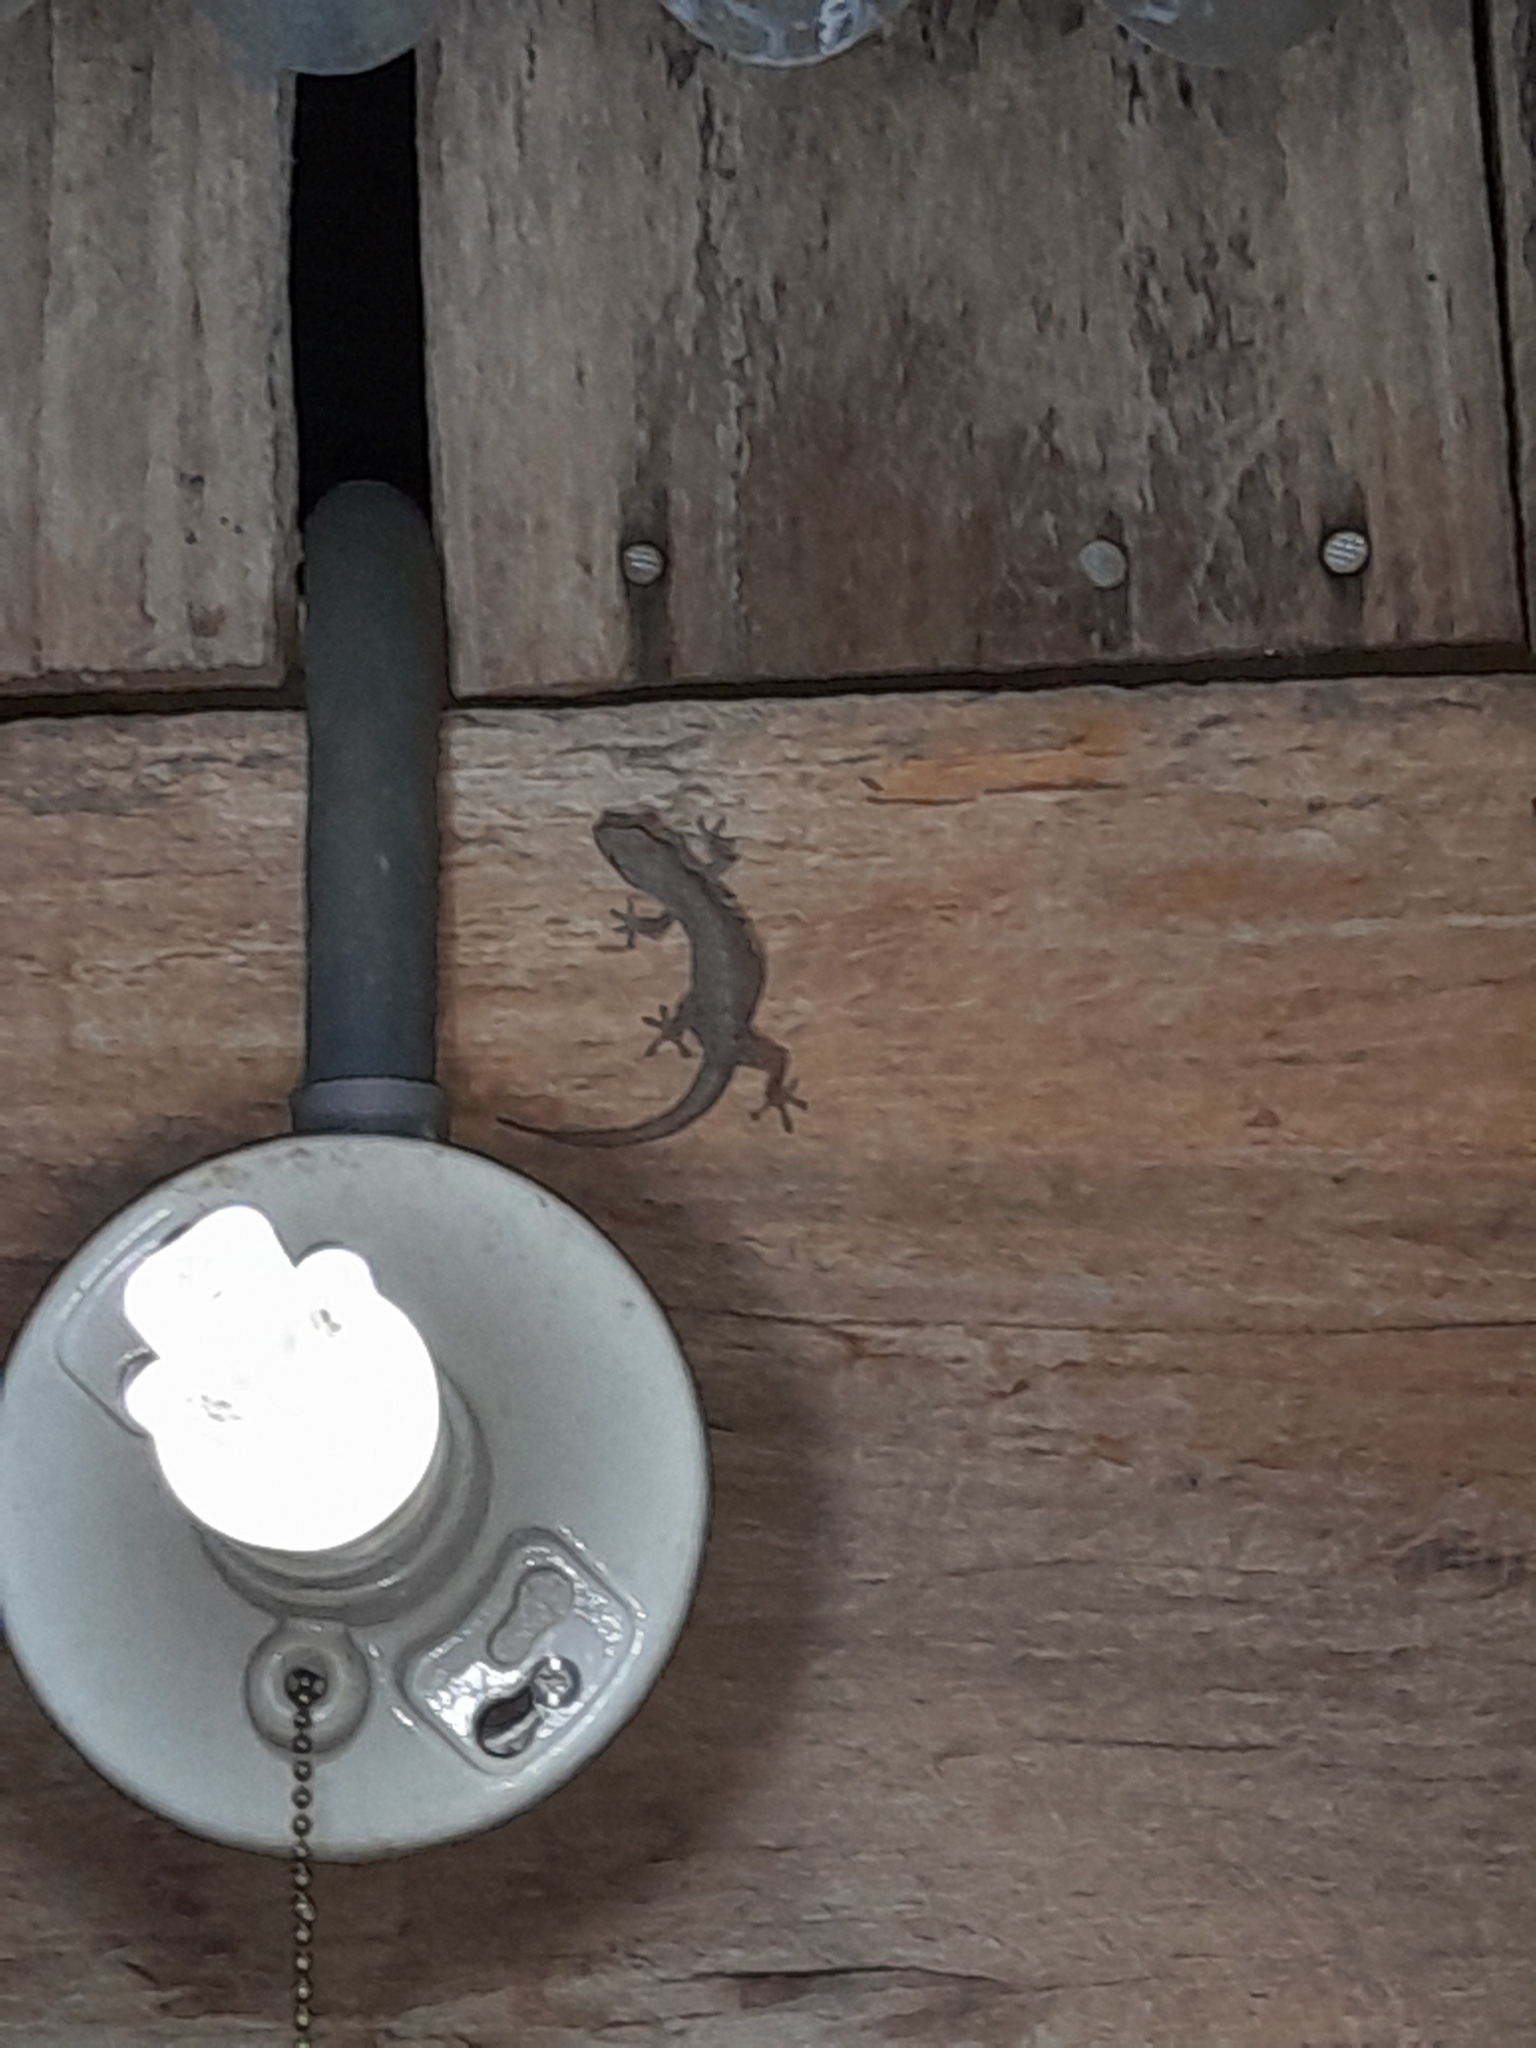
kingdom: Animalia
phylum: Chordata
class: Squamata
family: Gekkonidae
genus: Hemidactylus
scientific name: Hemidactylus frenatus
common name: Common house gecko
